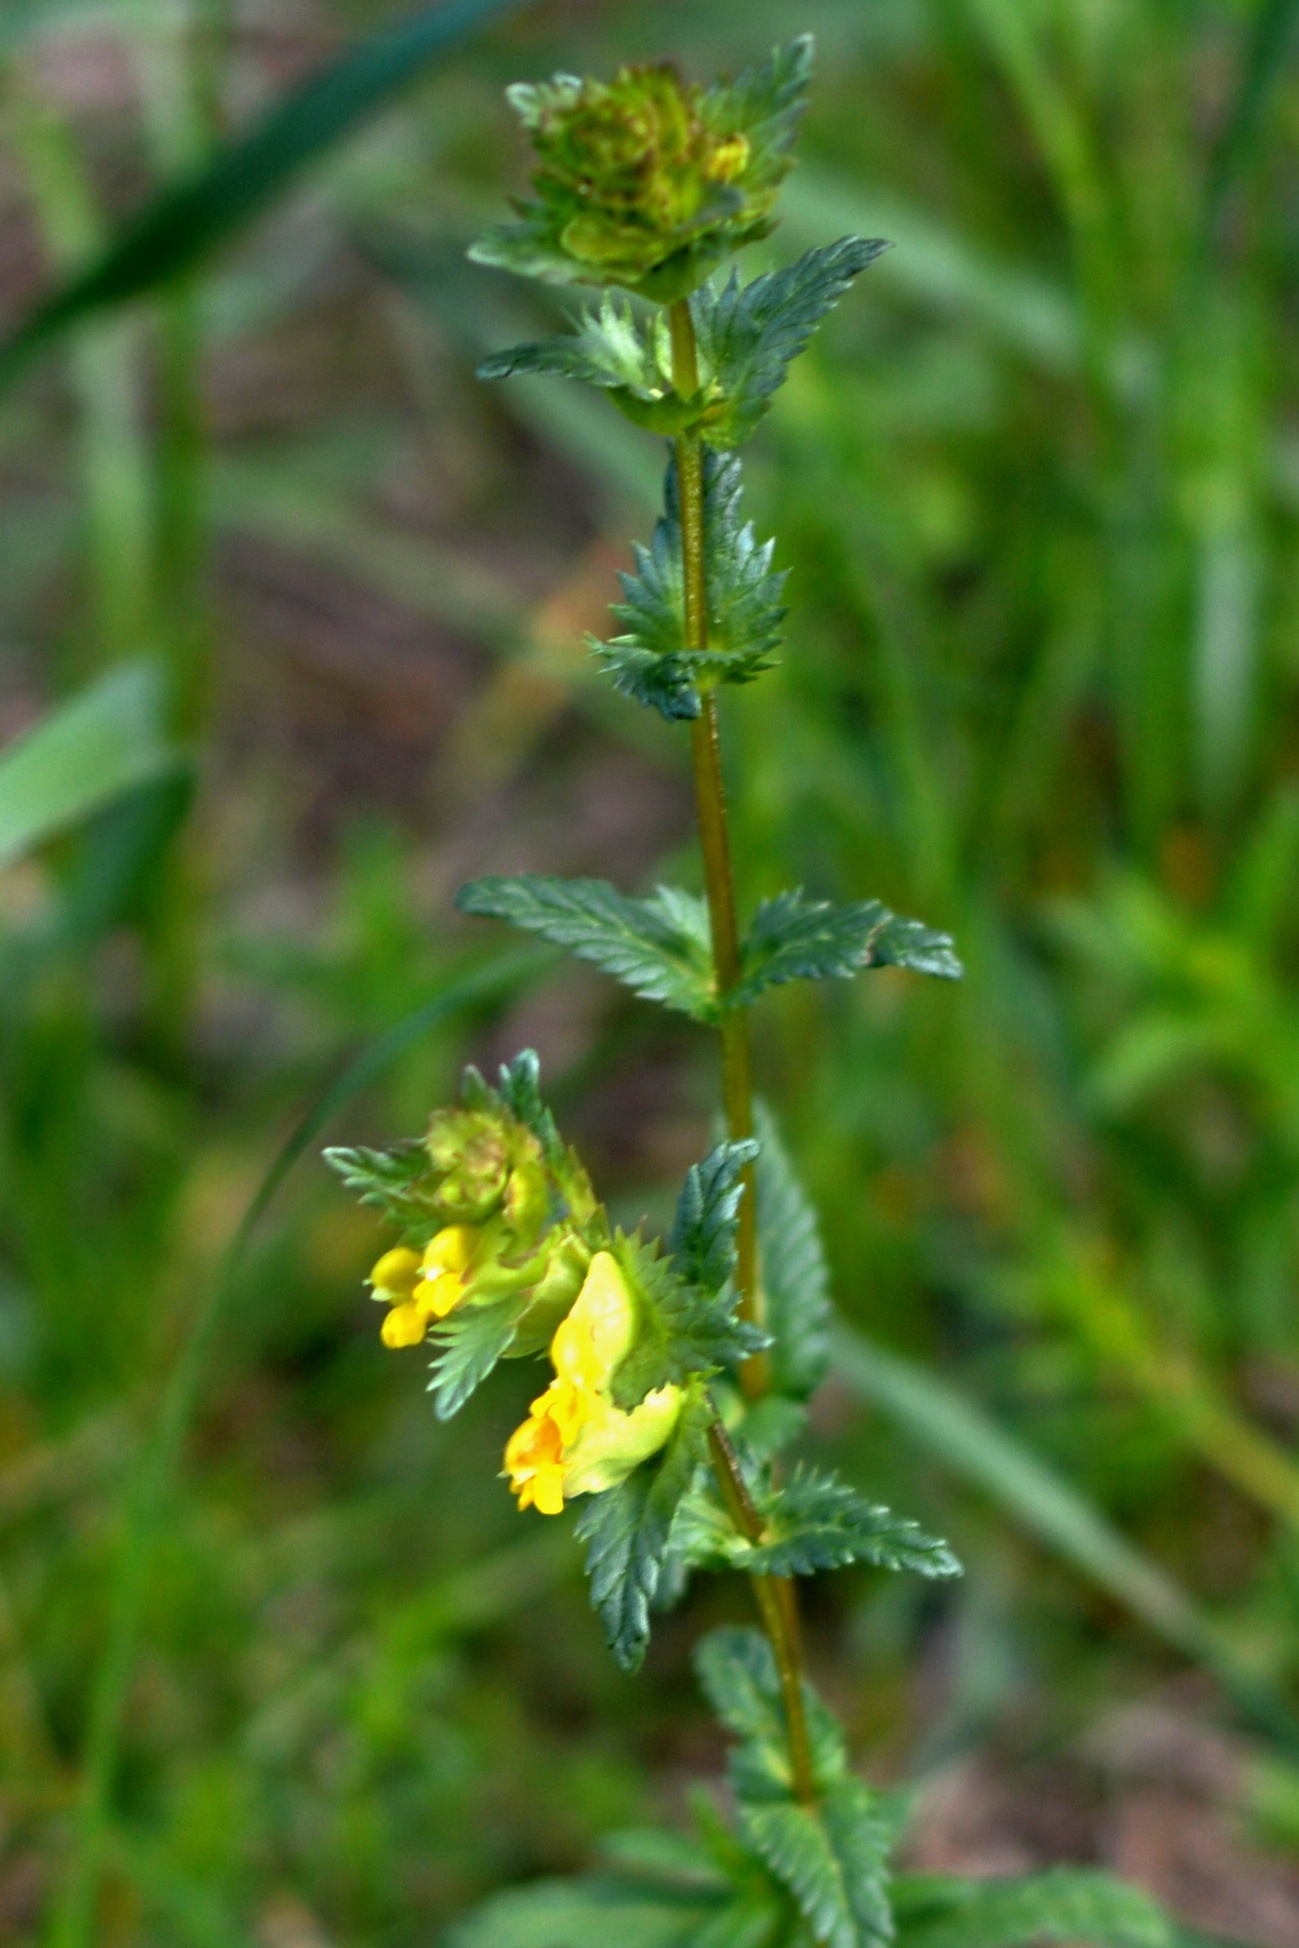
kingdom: Plantae
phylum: Tracheophyta
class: Magnoliopsida
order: Lamiales
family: Orobanchaceae
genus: Rhinanthus
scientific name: Rhinanthus minor
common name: Yellow-rattle
